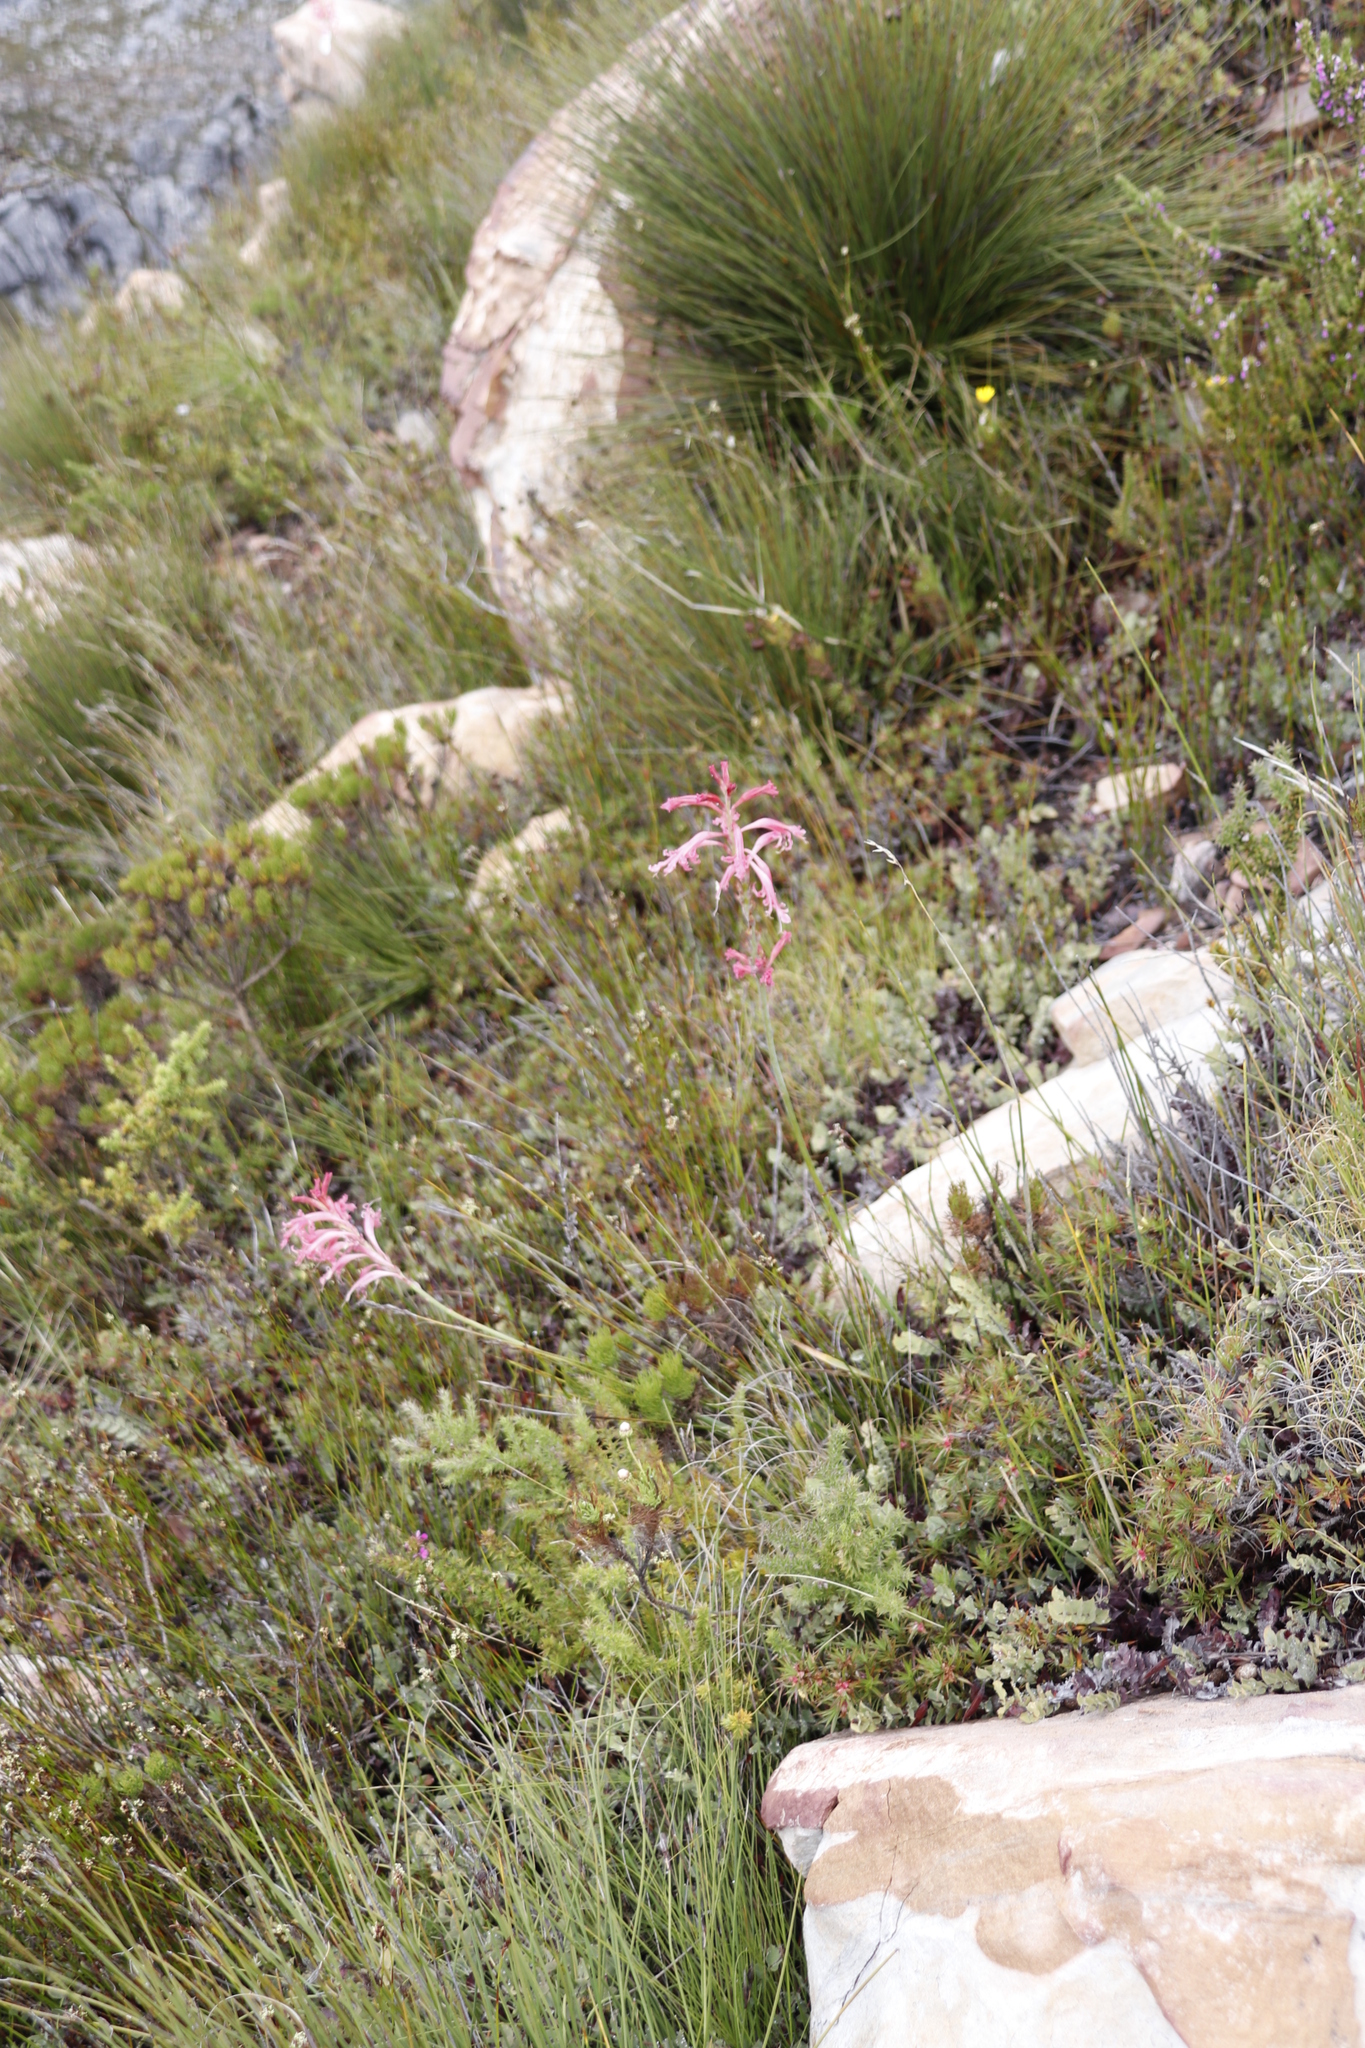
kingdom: Plantae
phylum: Tracheophyta
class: Liliopsida
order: Asparagales
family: Iridaceae
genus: Tritoniopsis
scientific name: Tritoniopsis antholyza
